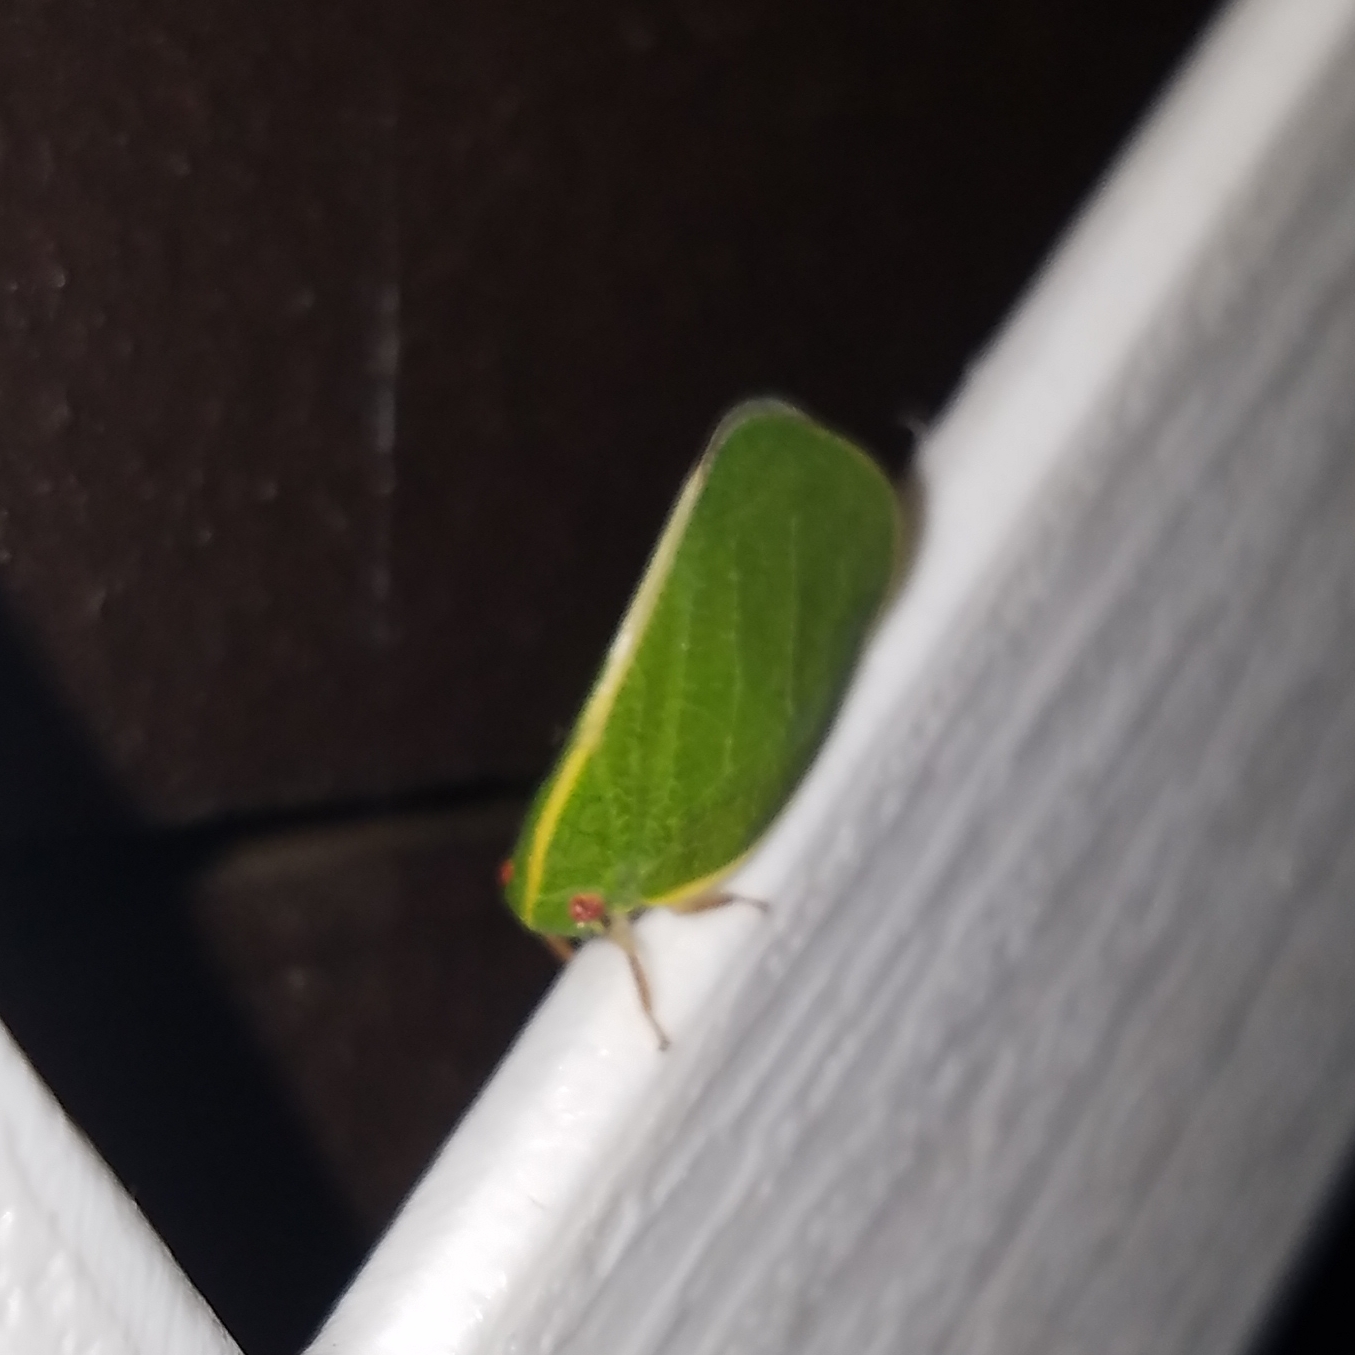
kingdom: Animalia
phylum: Arthropoda
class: Insecta
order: Hemiptera
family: Acanaloniidae
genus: Acanalonia
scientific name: Acanalonia servillei
